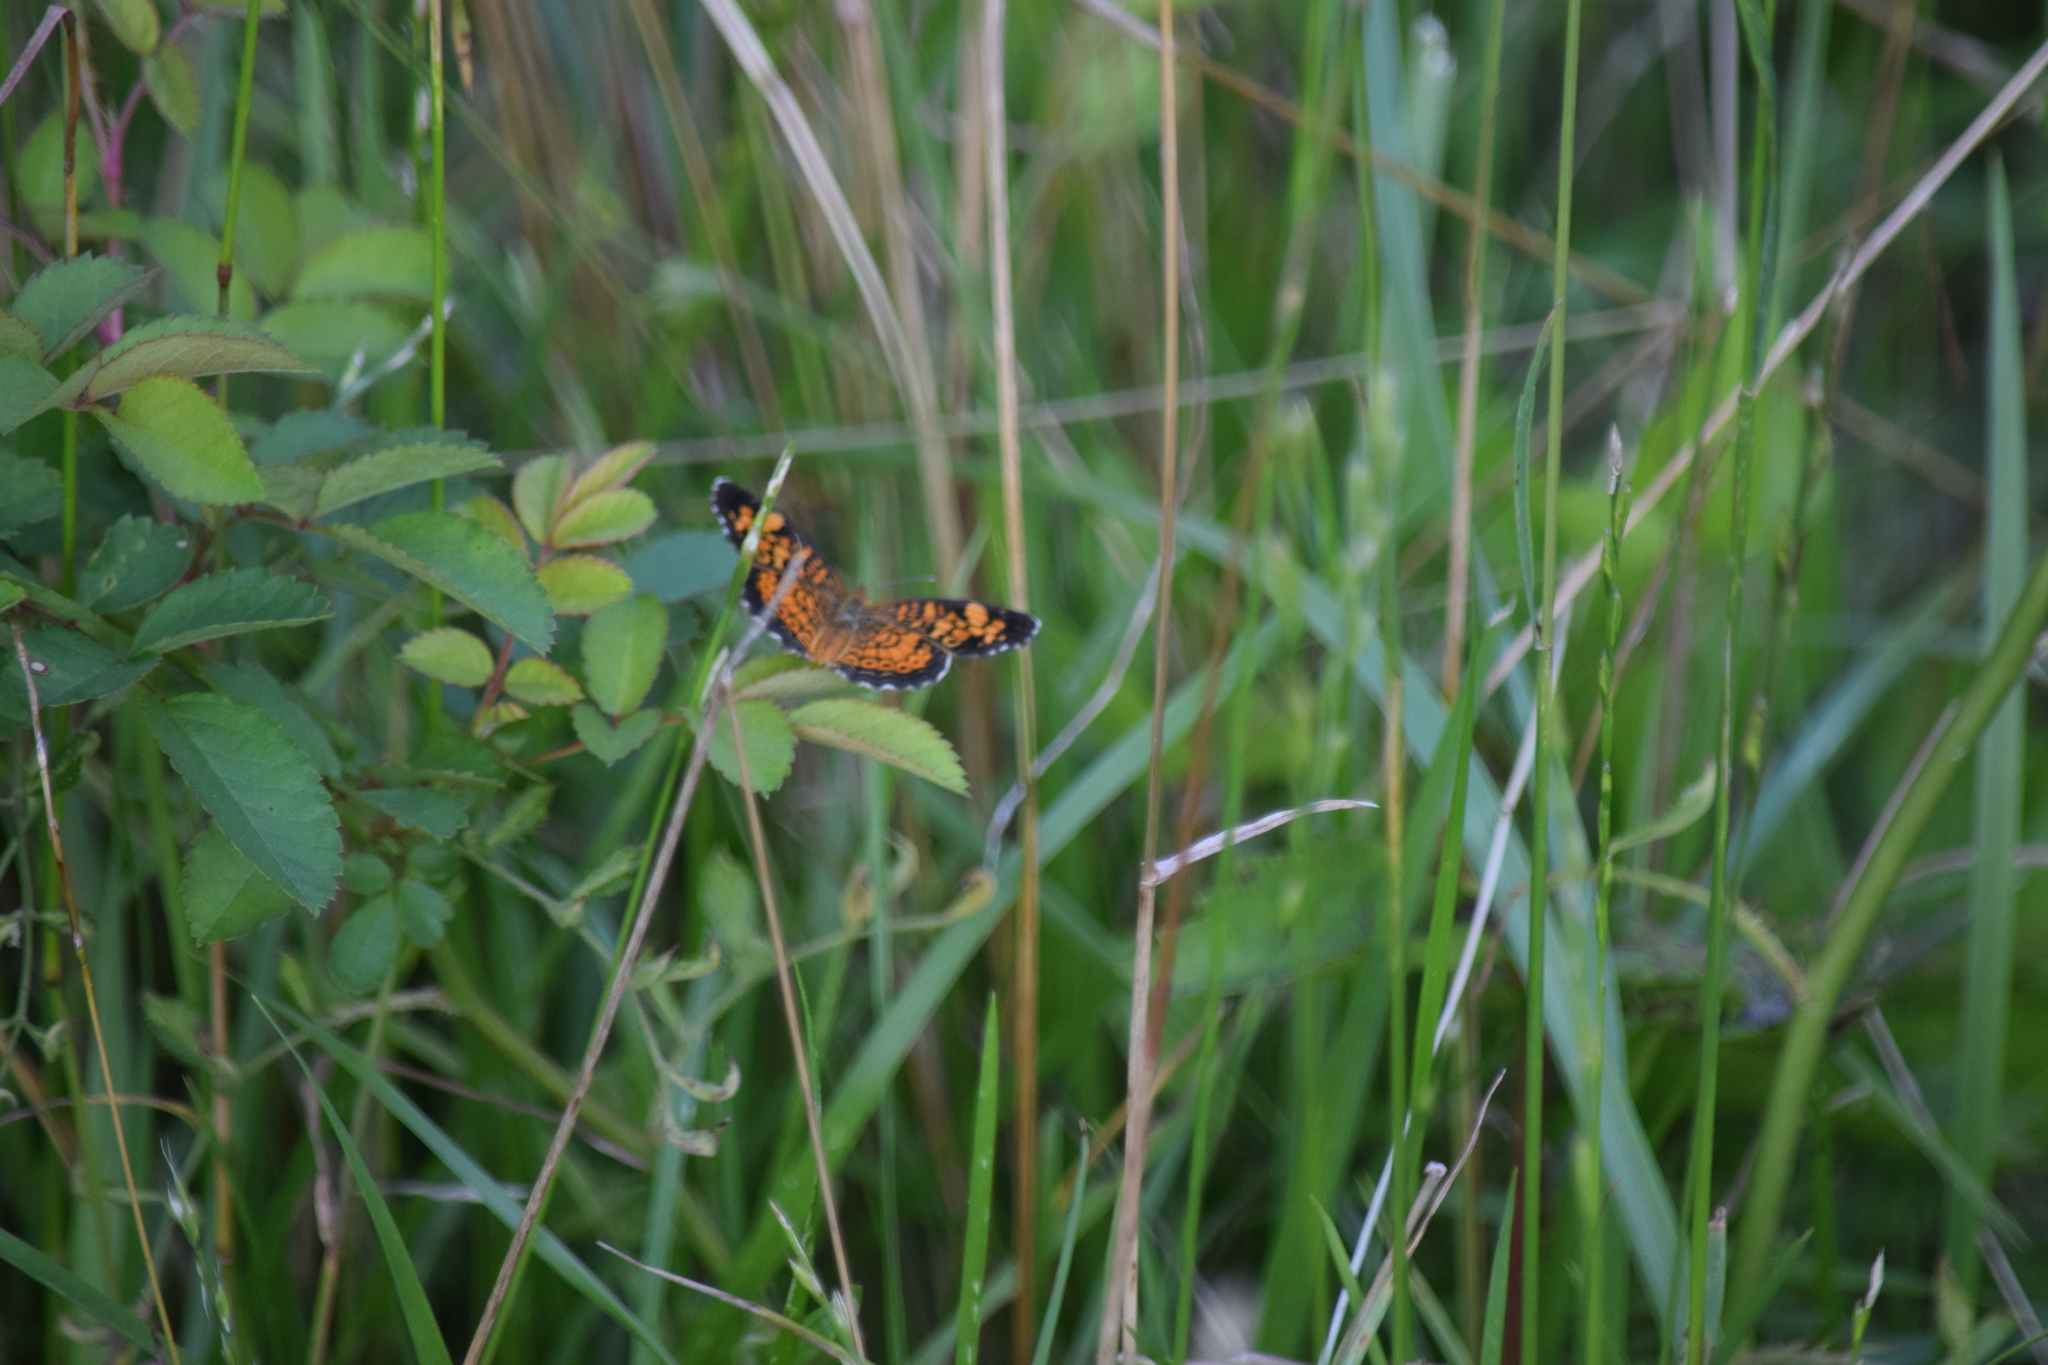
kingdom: Animalia
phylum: Arthropoda
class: Insecta
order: Lepidoptera
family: Nymphalidae
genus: Phyciodes
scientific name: Phyciodes tharos
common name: Pearl crescent
